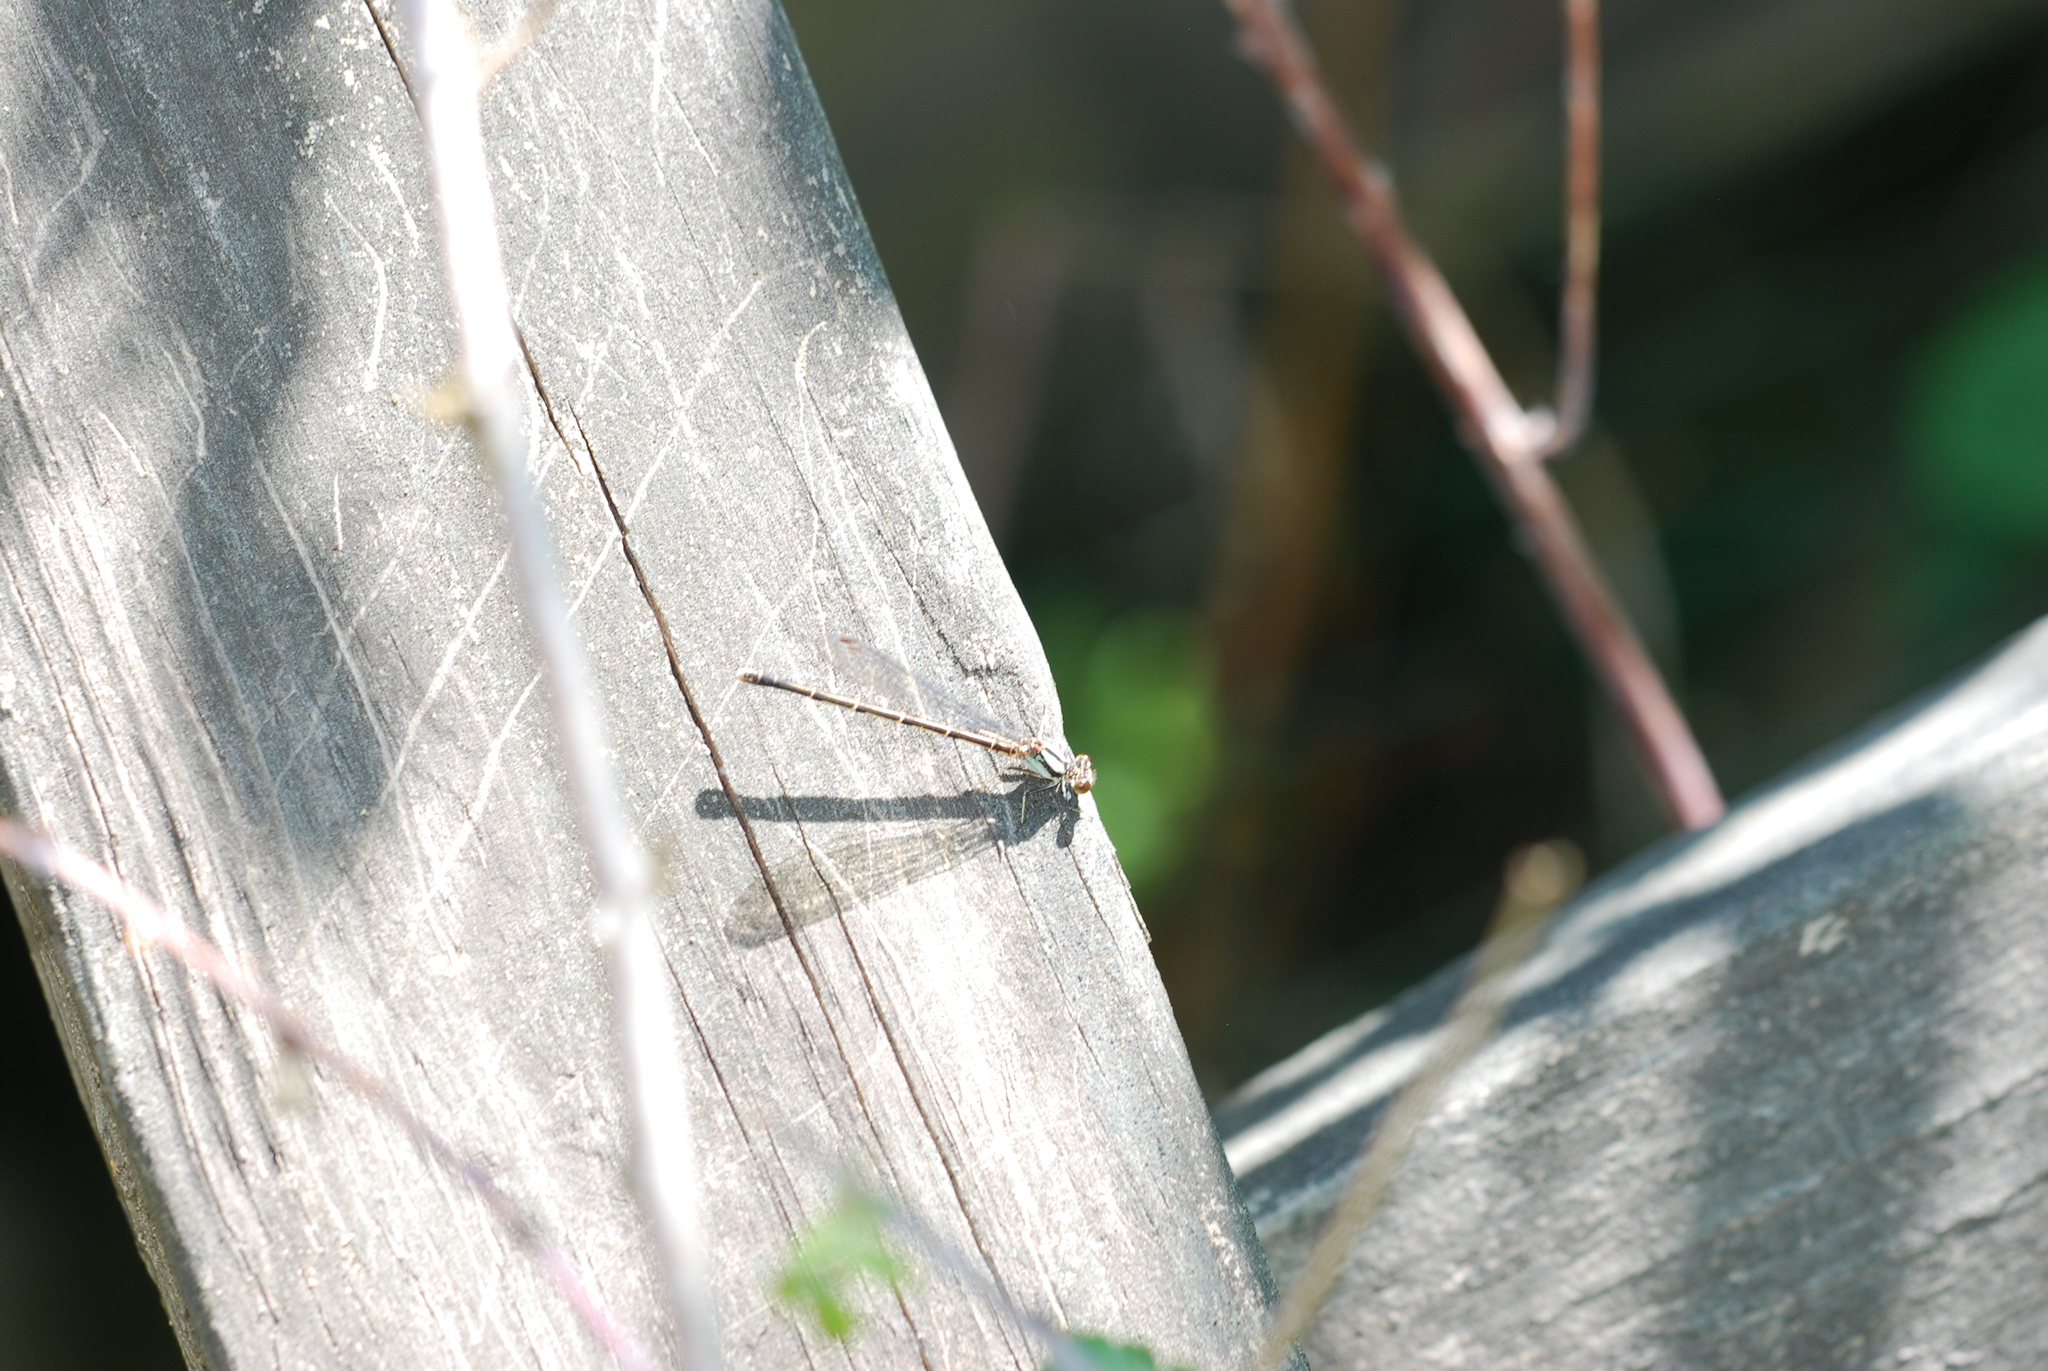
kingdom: Animalia
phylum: Arthropoda
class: Insecta
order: Odonata
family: Coenagrionidae
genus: Argia
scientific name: Argia tibialis
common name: Blue-tipped dancer
